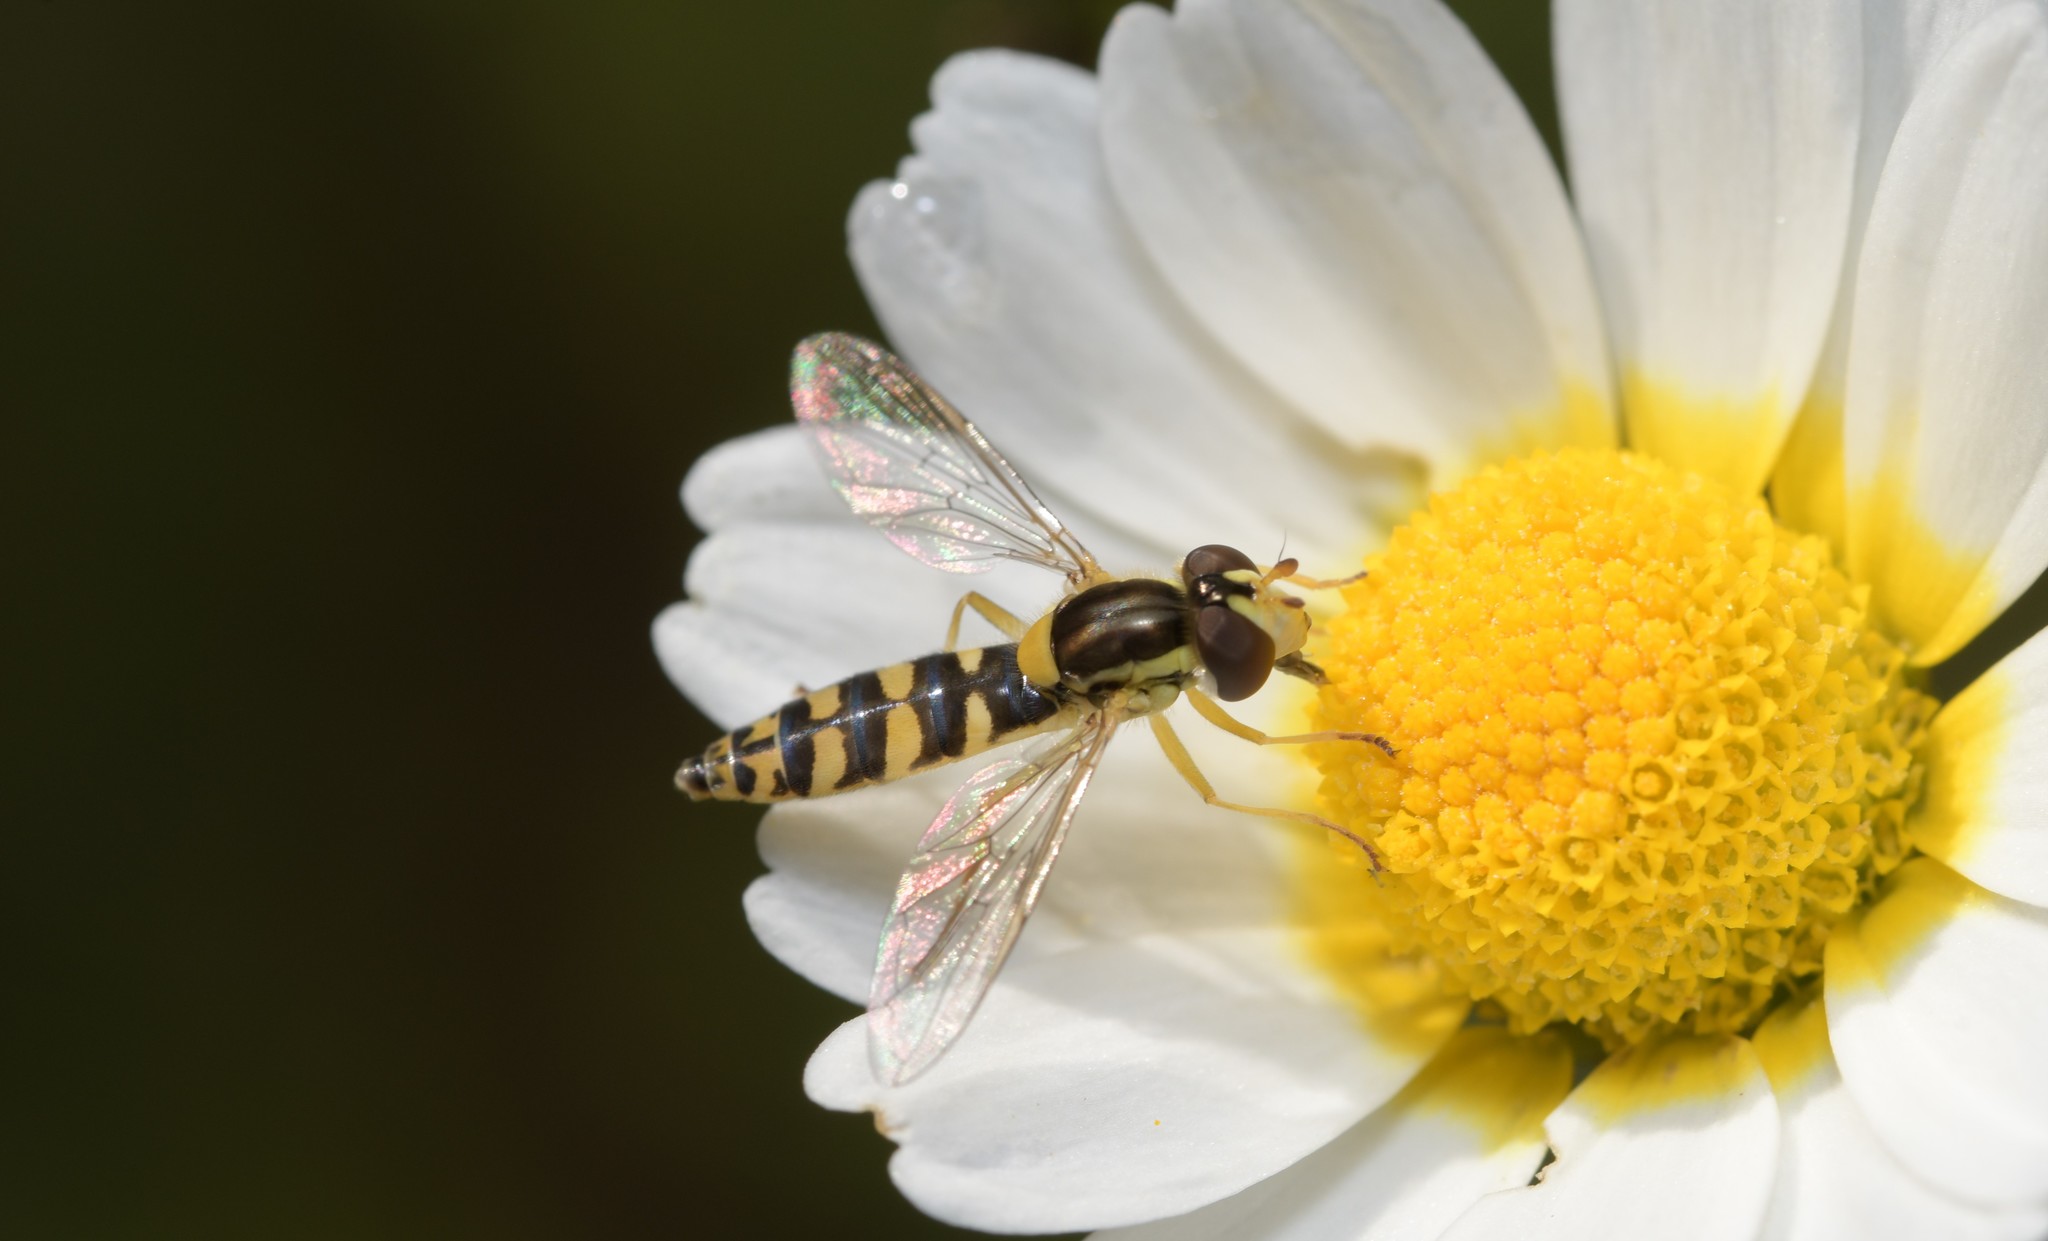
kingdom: Animalia
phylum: Arthropoda
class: Insecta
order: Diptera
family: Syrphidae
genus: Sphaerophoria
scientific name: Sphaerophoria scripta
